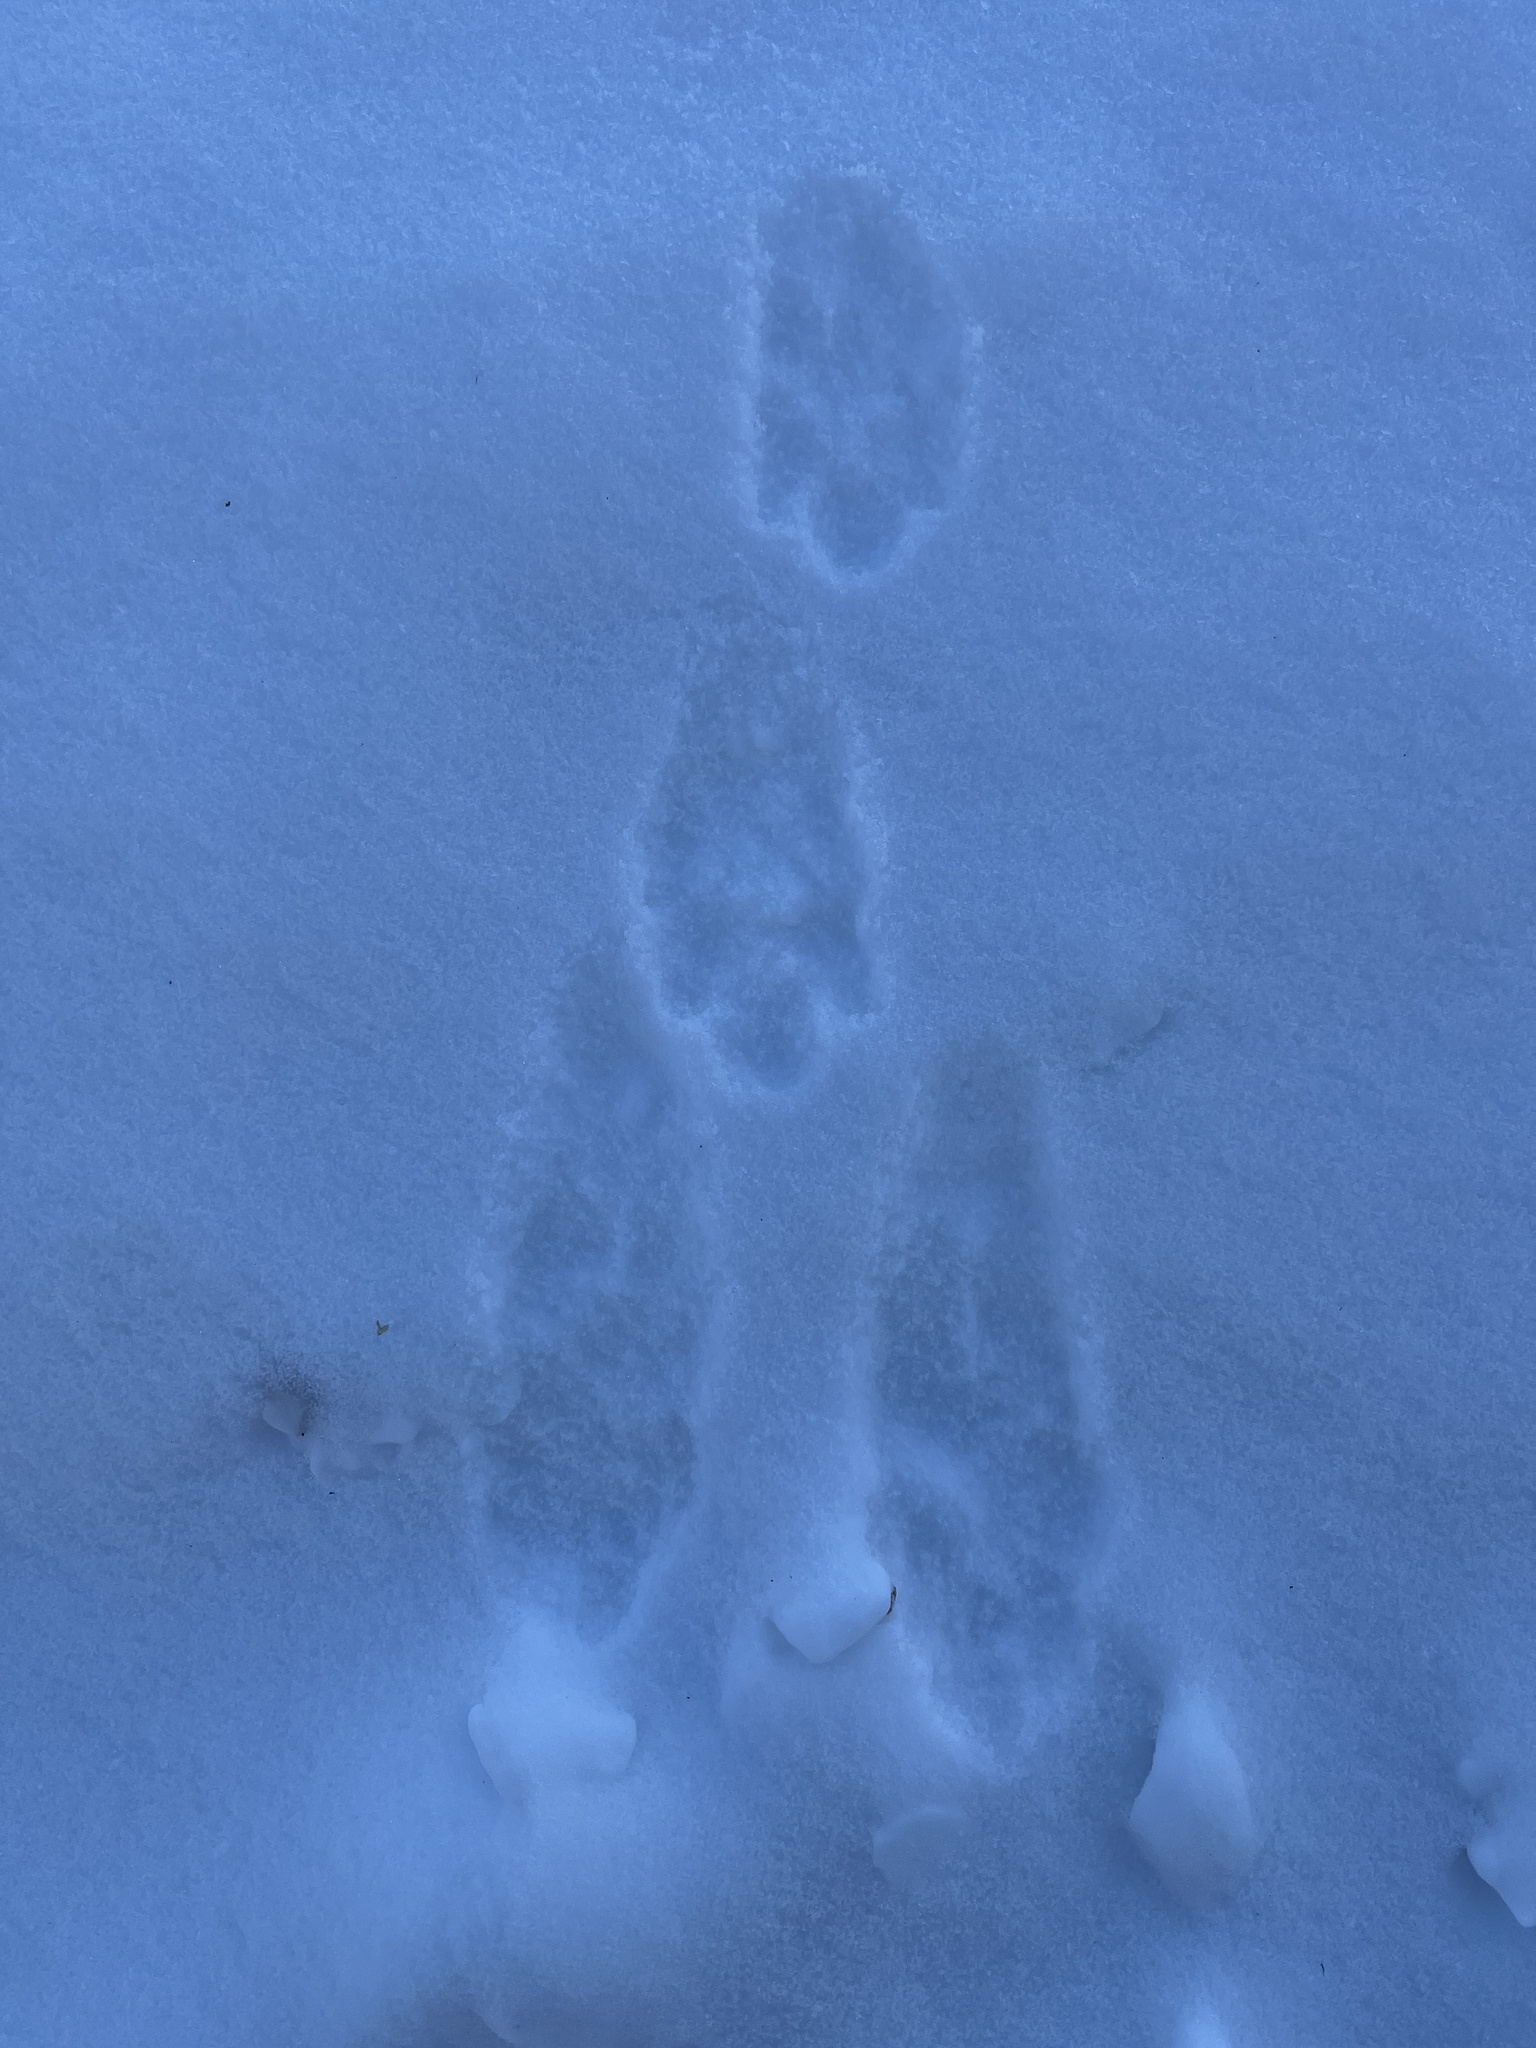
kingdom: Animalia
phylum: Chordata
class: Mammalia
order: Lagomorpha
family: Leporidae
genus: Lepus
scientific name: Lepus americanus
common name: Snowshoe hare
